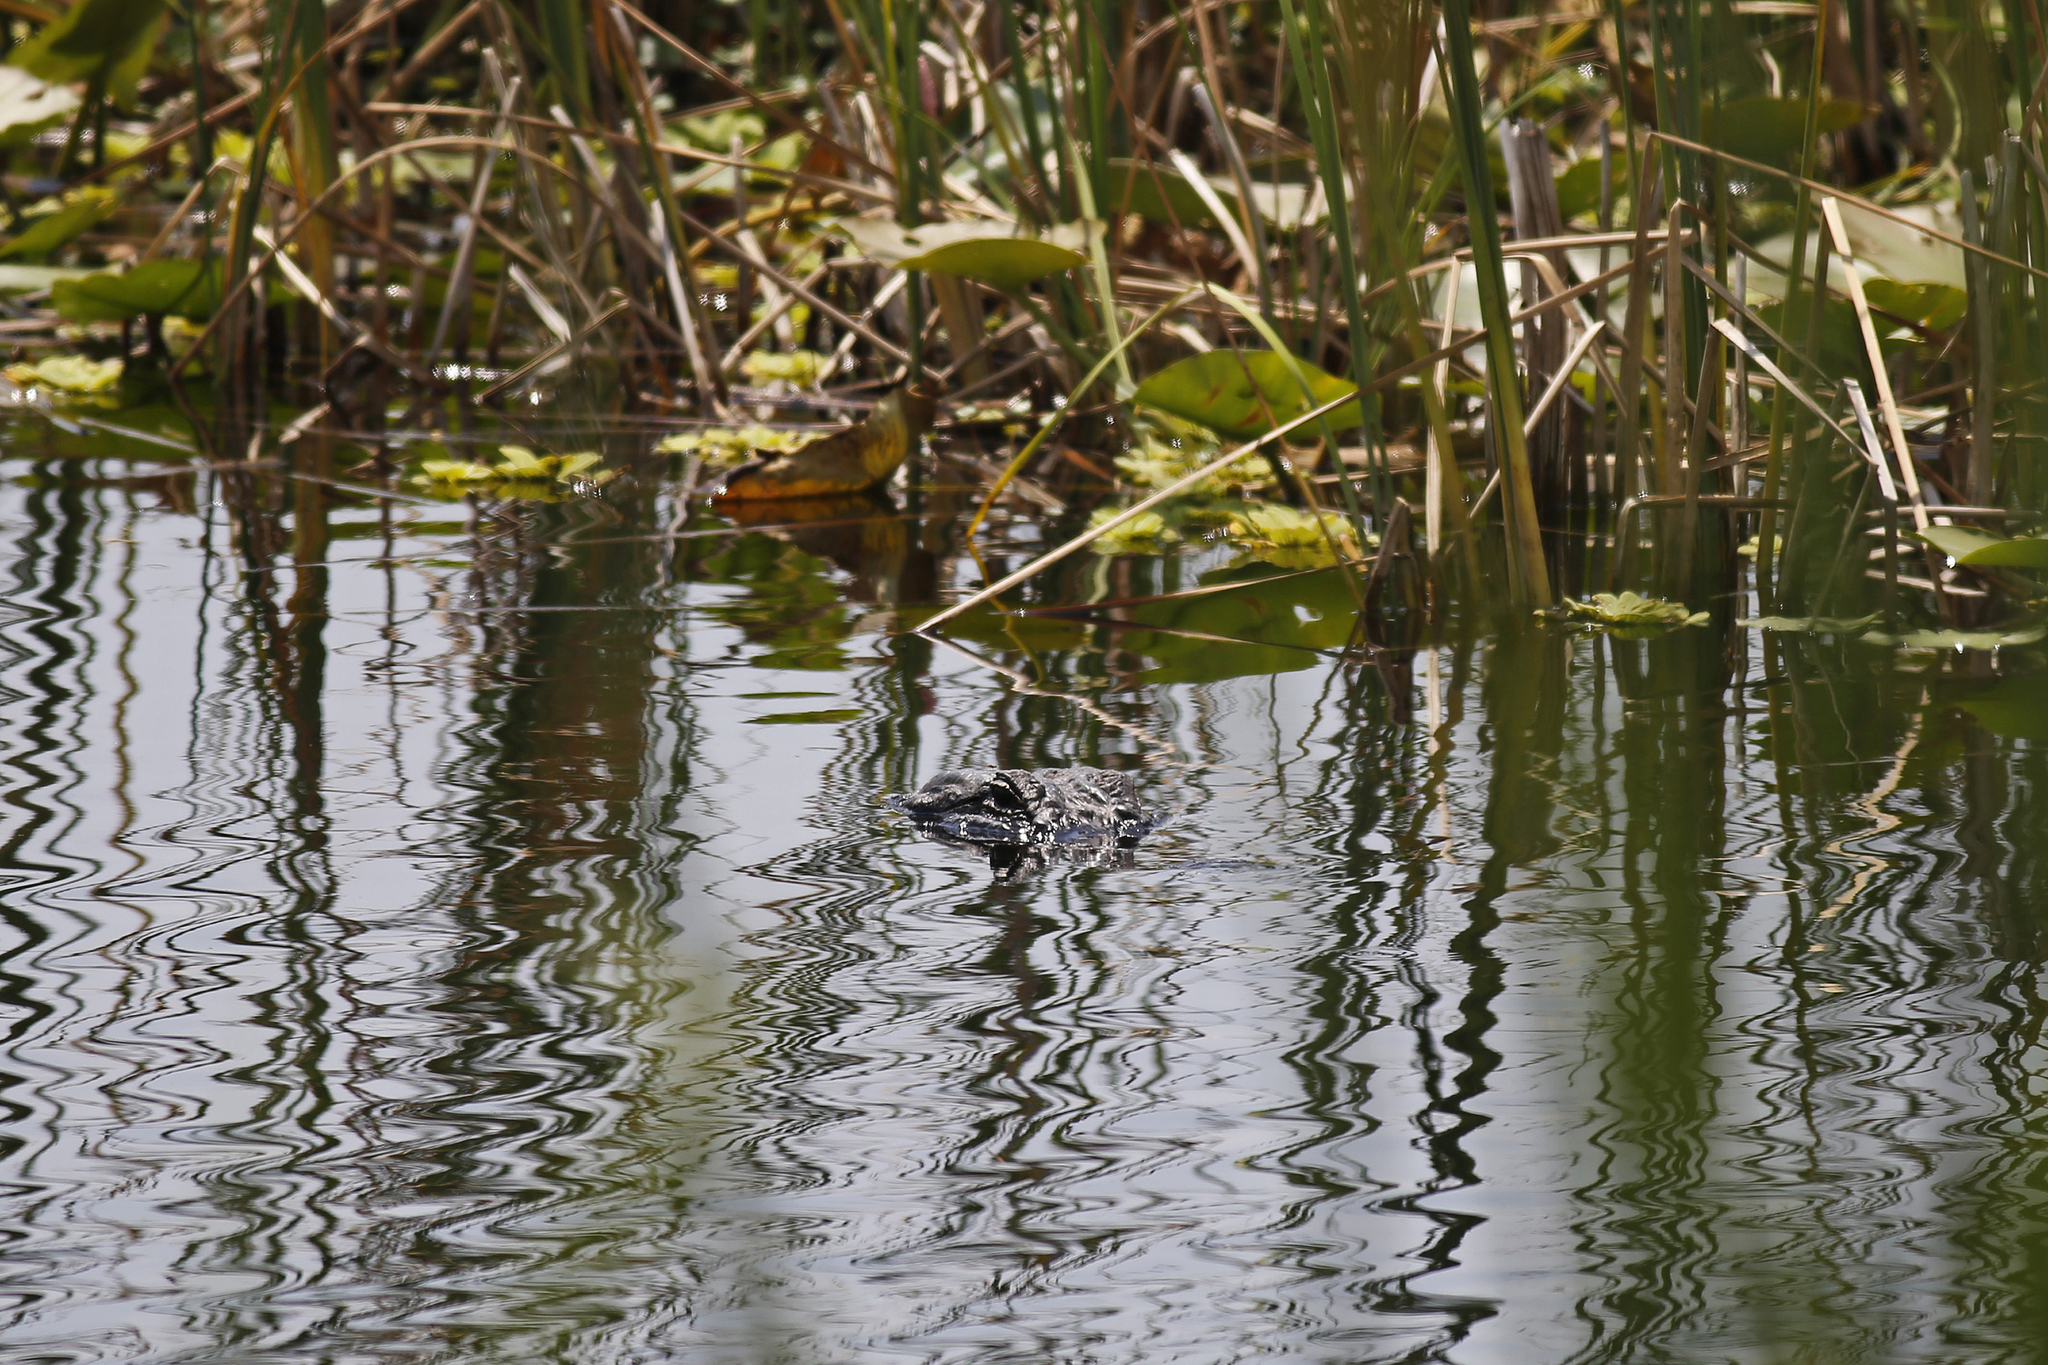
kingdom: Animalia
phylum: Chordata
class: Crocodylia
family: Alligatoridae
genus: Alligator
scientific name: Alligator mississippiensis
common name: American alligator
